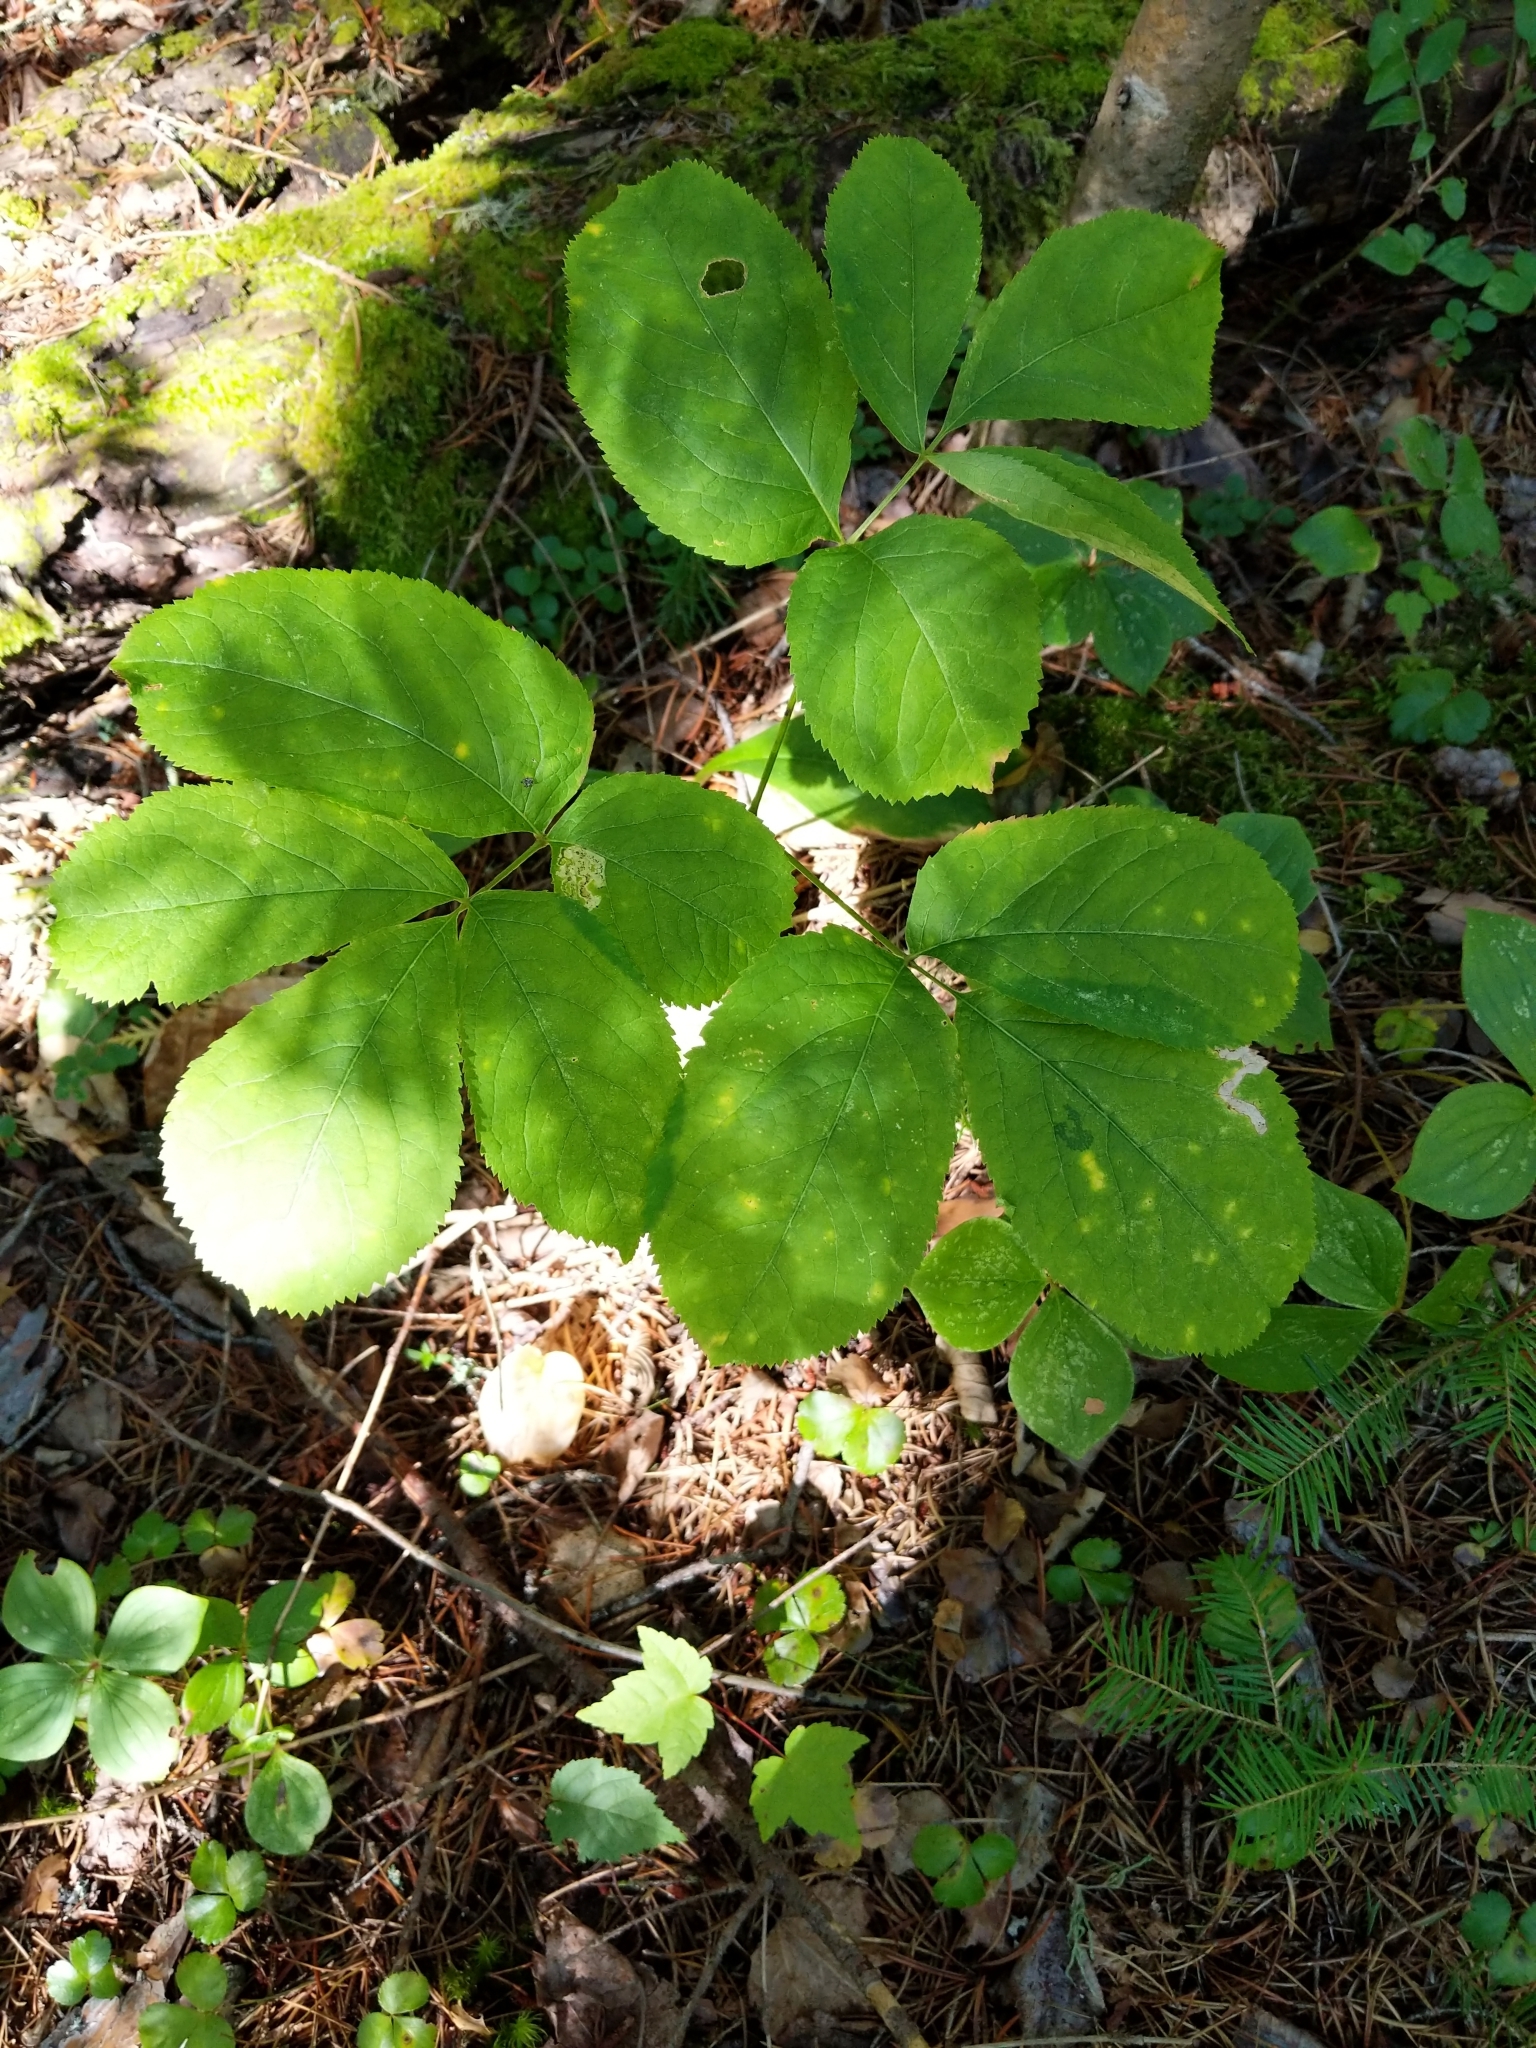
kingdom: Plantae
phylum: Tracheophyta
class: Magnoliopsida
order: Apiales
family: Araliaceae
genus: Aralia
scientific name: Aralia nudicaulis
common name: Wild sarsaparilla
